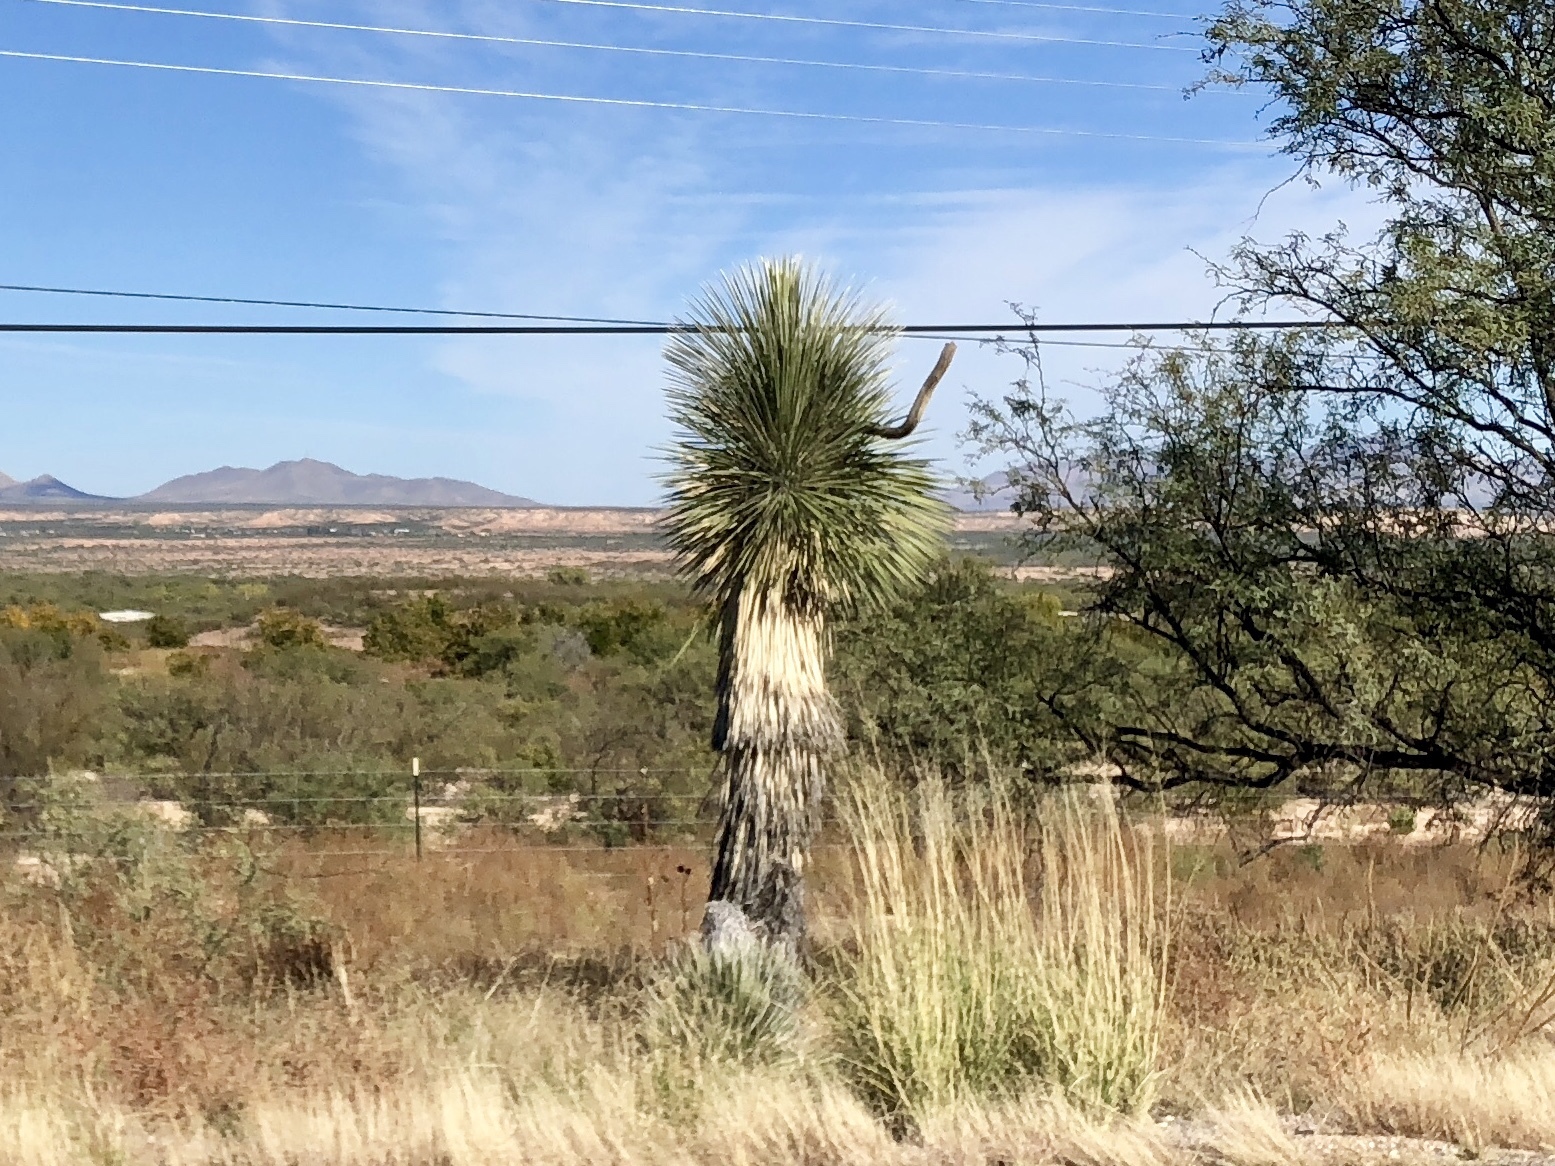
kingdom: Plantae
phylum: Tracheophyta
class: Liliopsida
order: Asparagales
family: Asparagaceae
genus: Yucca
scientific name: Yucca elata
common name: Palmella
